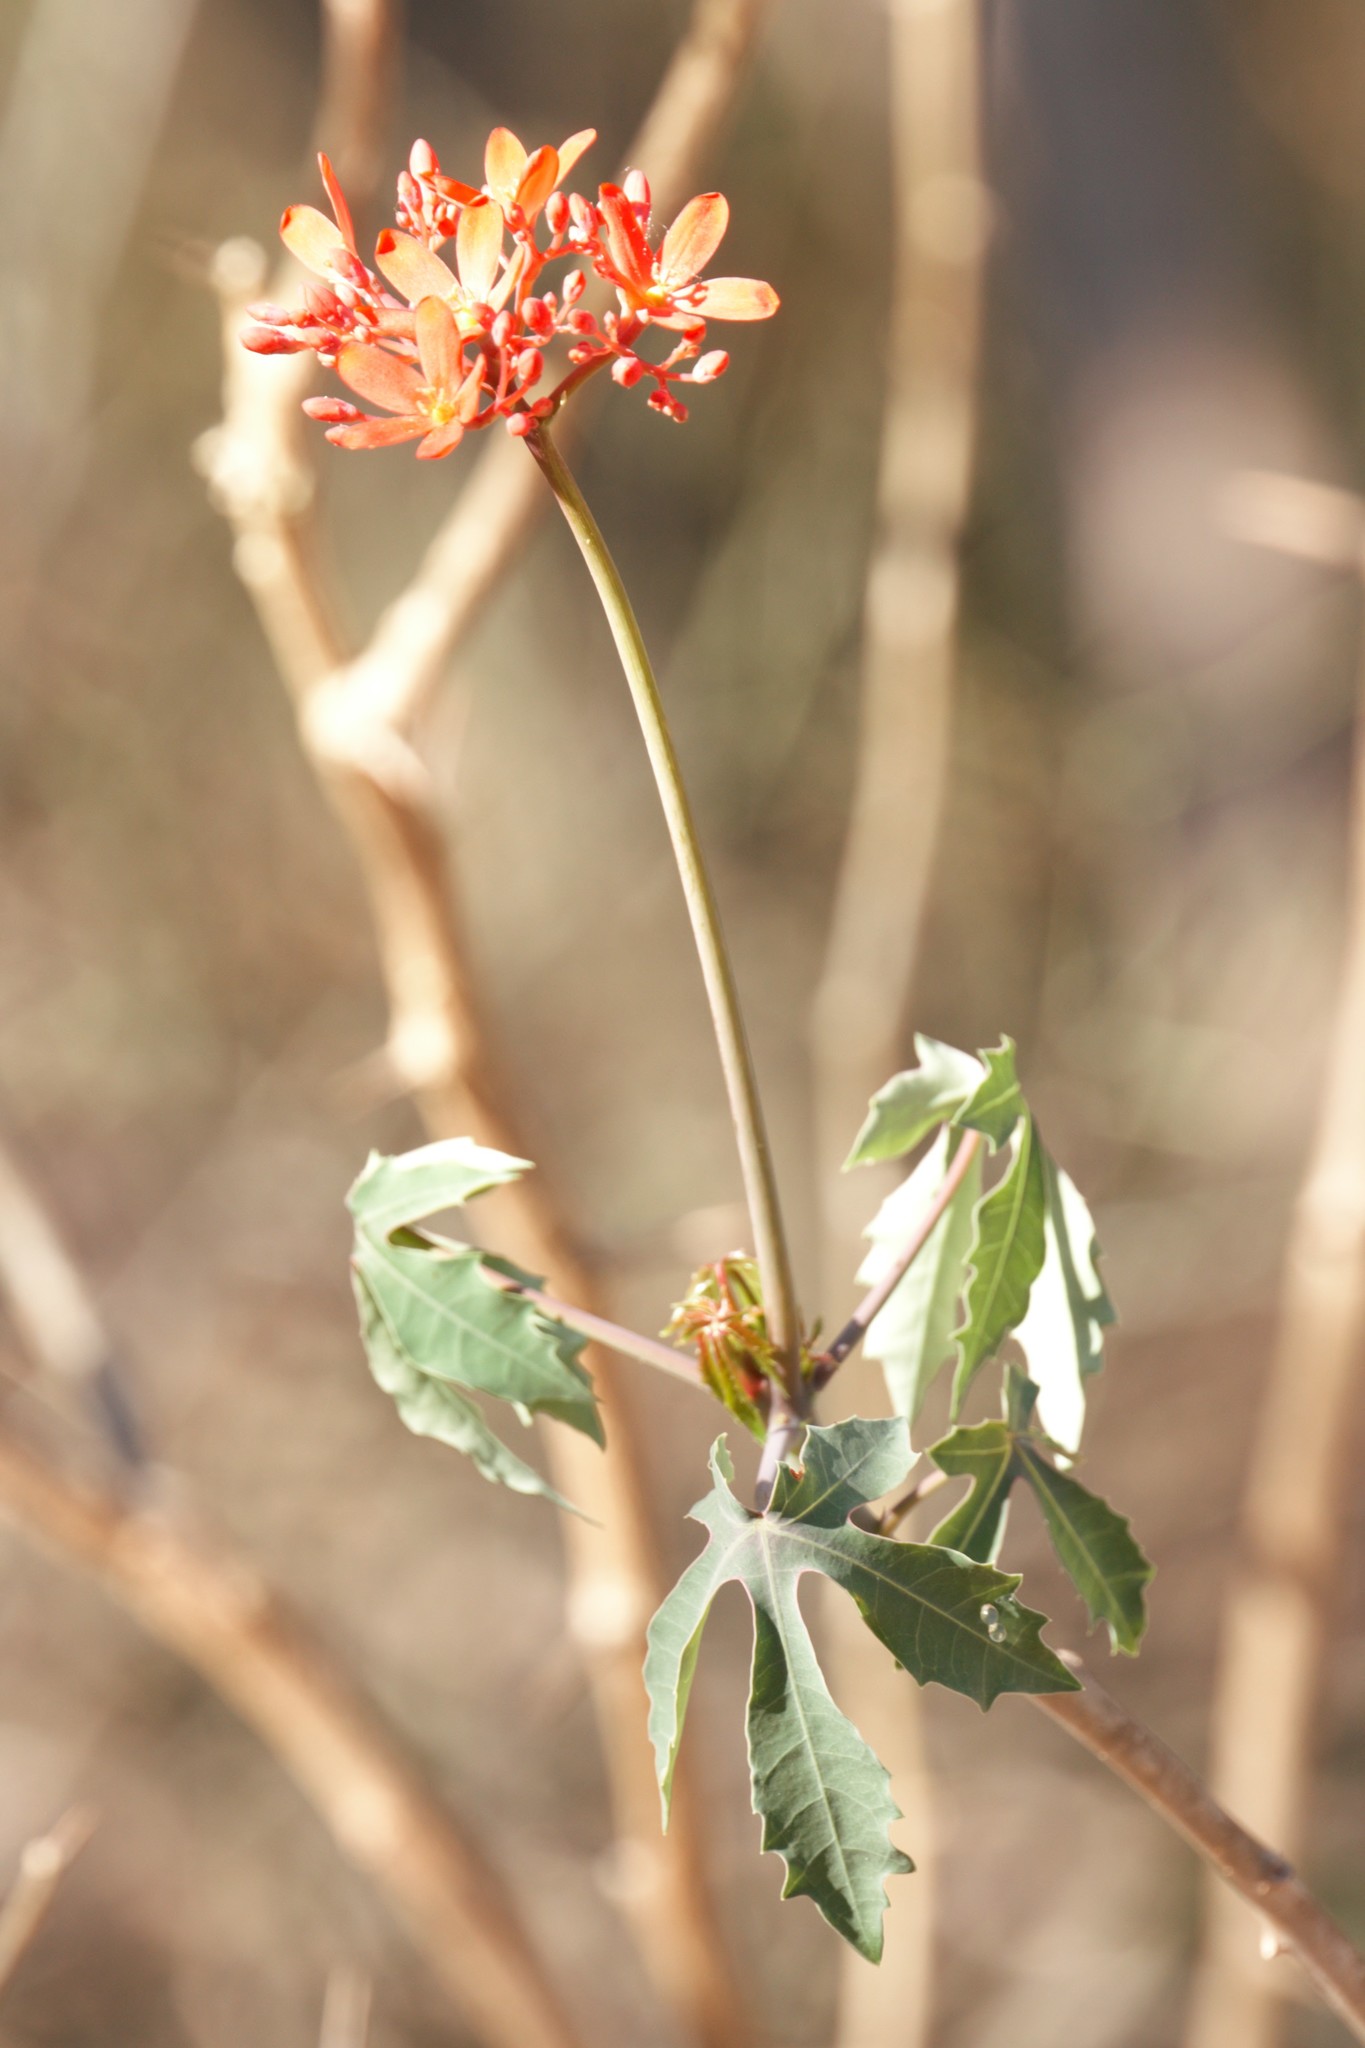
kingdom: Plantae
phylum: Tracheophyta
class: Magnoliopsida
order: Malpighiales
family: Euphorbiaceae
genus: Jatropha
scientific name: Jatropha grossidentata
